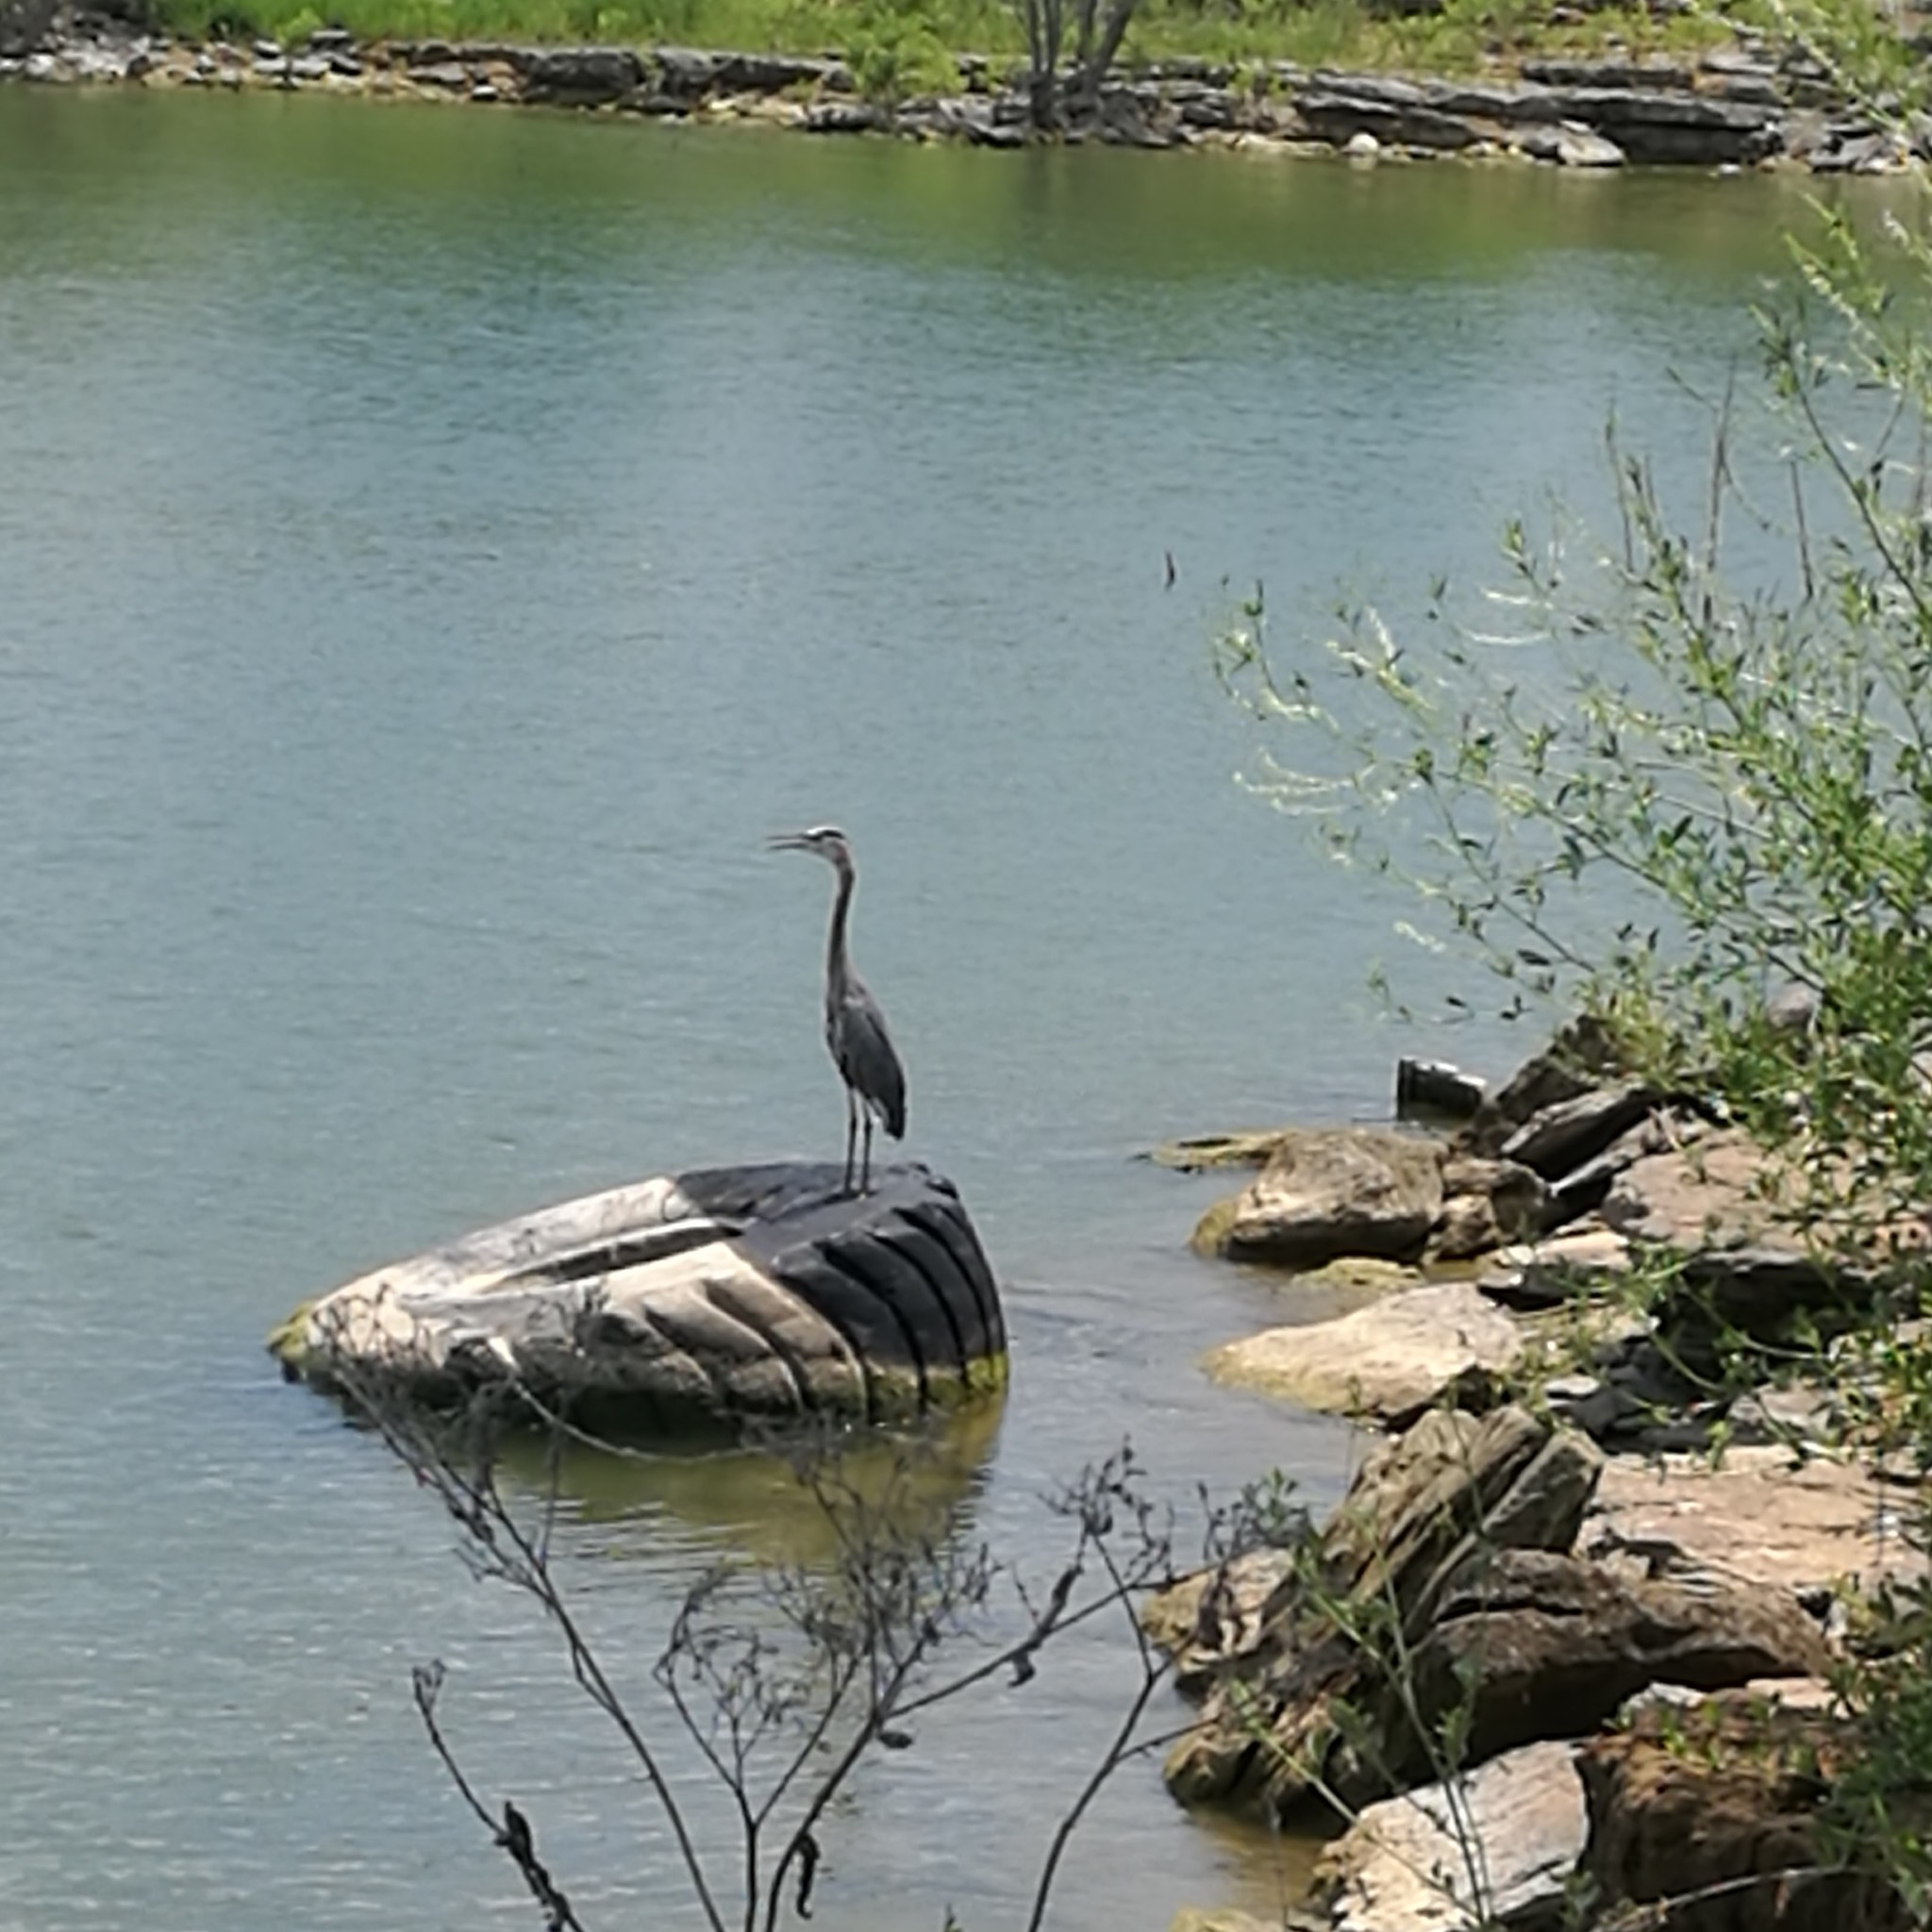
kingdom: Animalia
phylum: Chordata
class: Aves
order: Pelecaniformes
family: Ardeidae
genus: Ardea
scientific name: Ardea herodias
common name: Great blue heron
